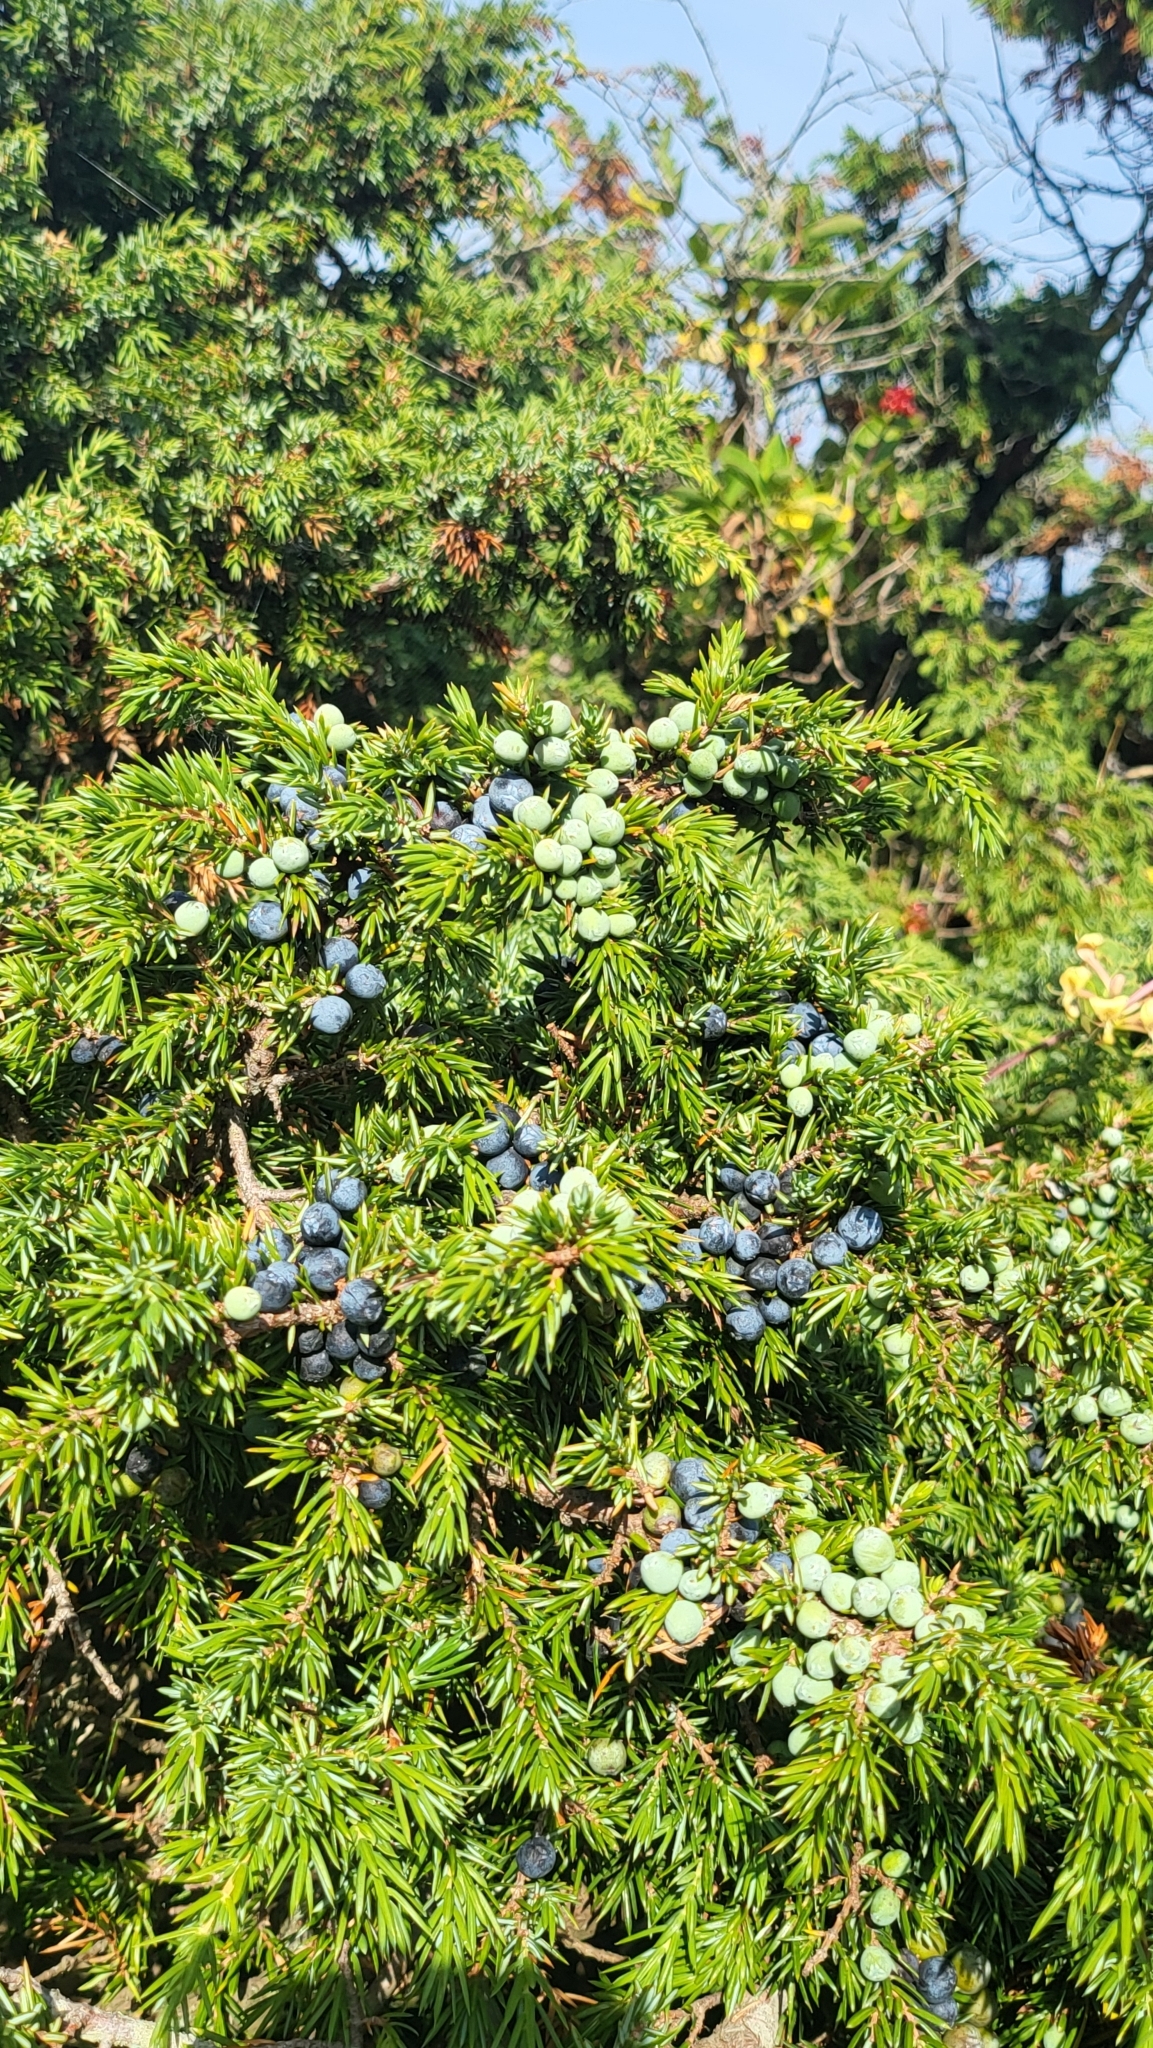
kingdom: Plantae
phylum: Tracheophyta
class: Pinopsida
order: Pinales
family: Cupressaceae
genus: Juniperus
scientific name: Juniperus communis
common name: Common juniper
